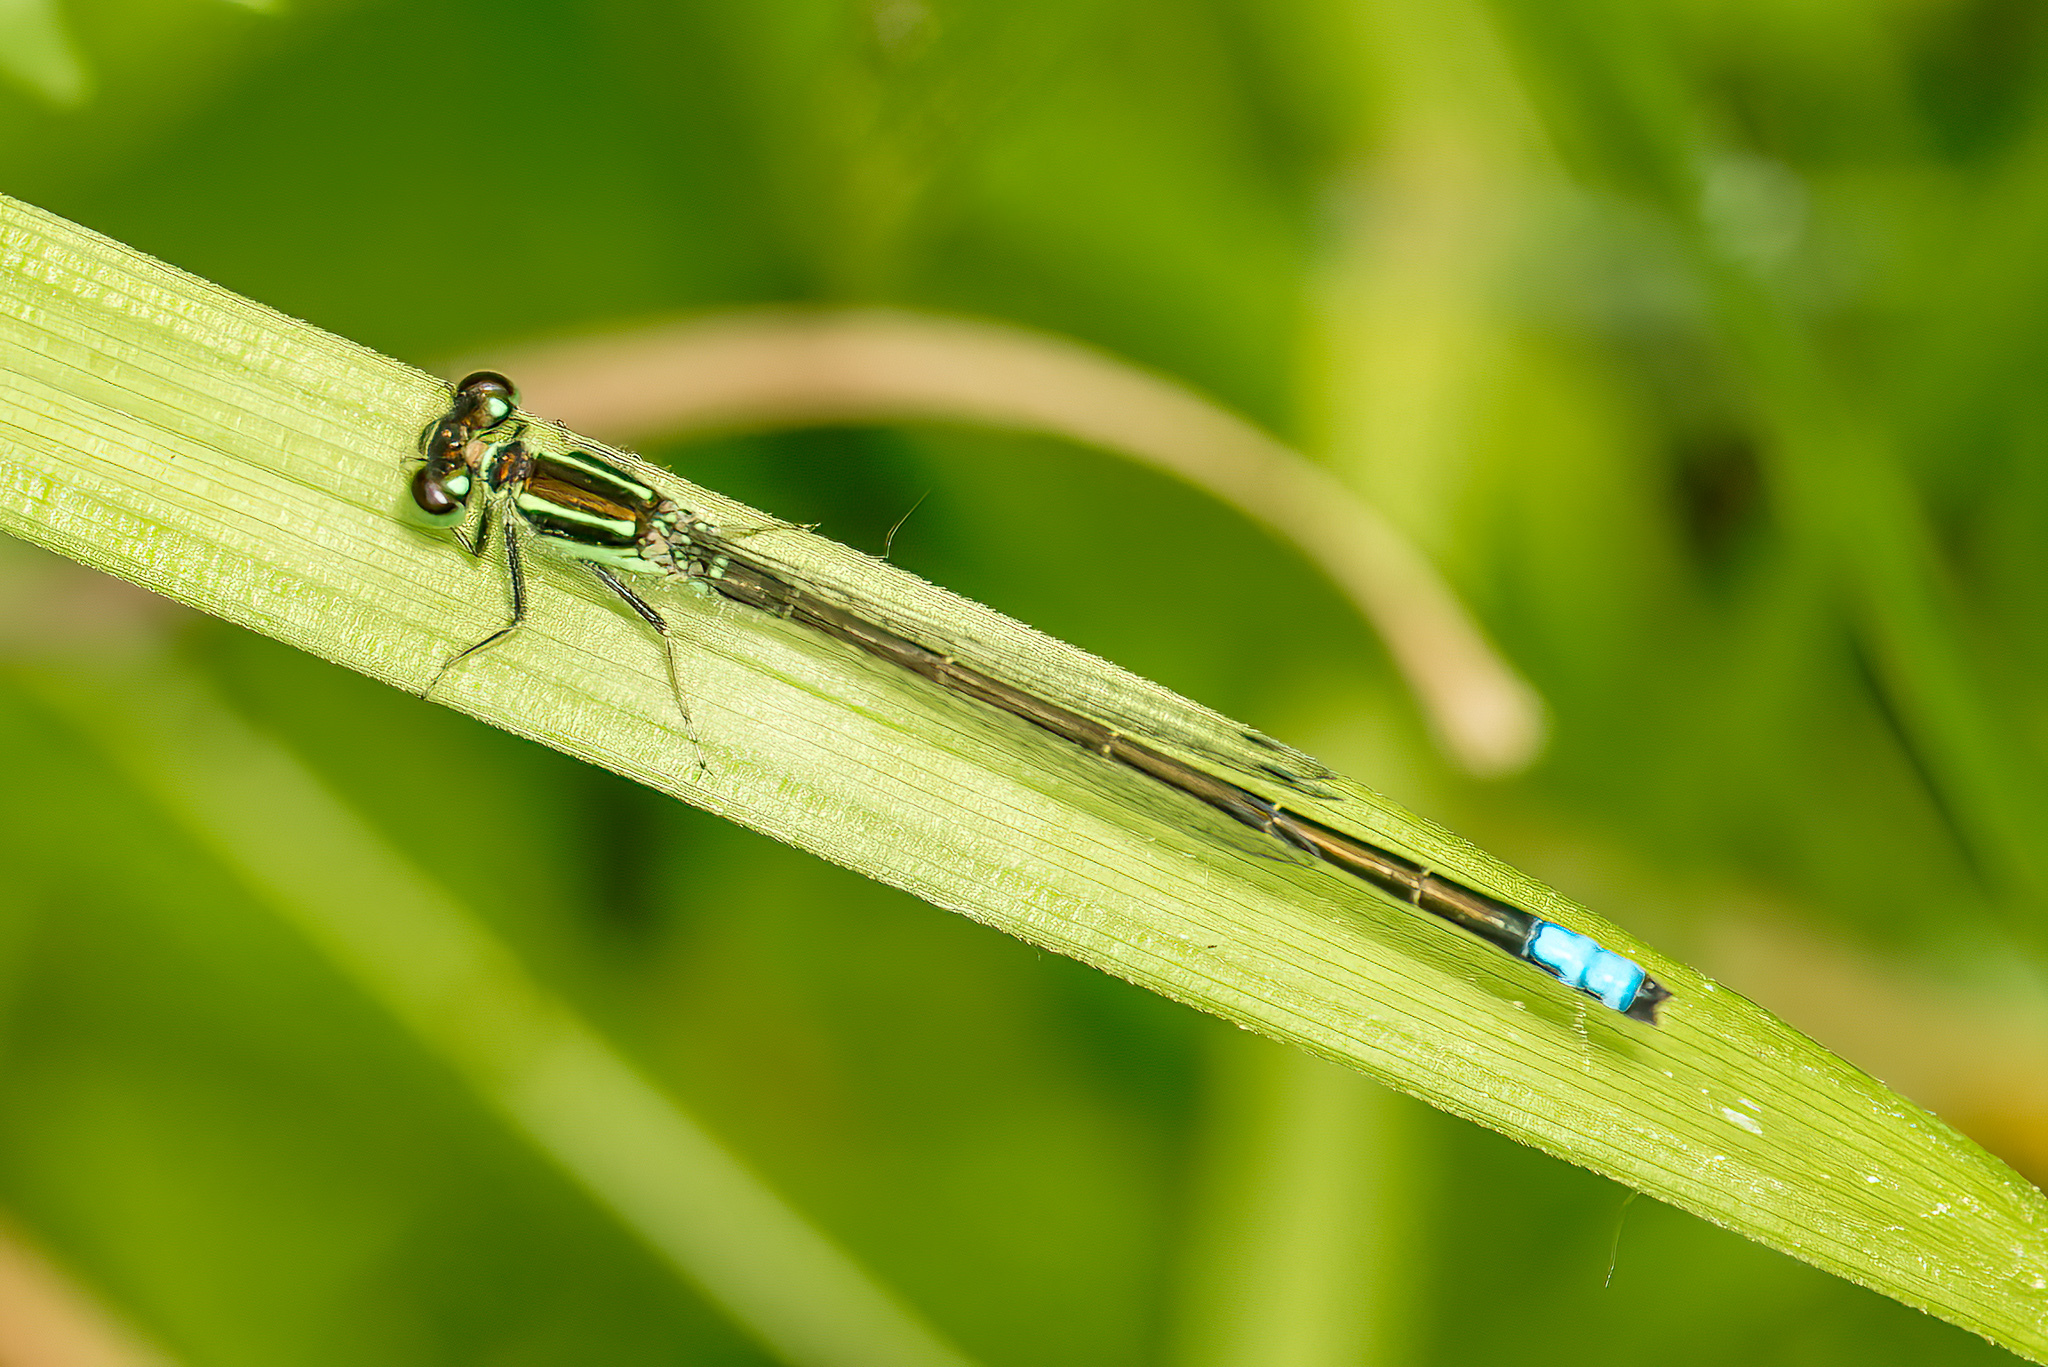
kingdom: Animalia
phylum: Arthropoda
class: Insecta
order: Odonata
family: Coenagrionidae
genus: Ischnura
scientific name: Ischnura verticalis
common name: Eastern forktail
